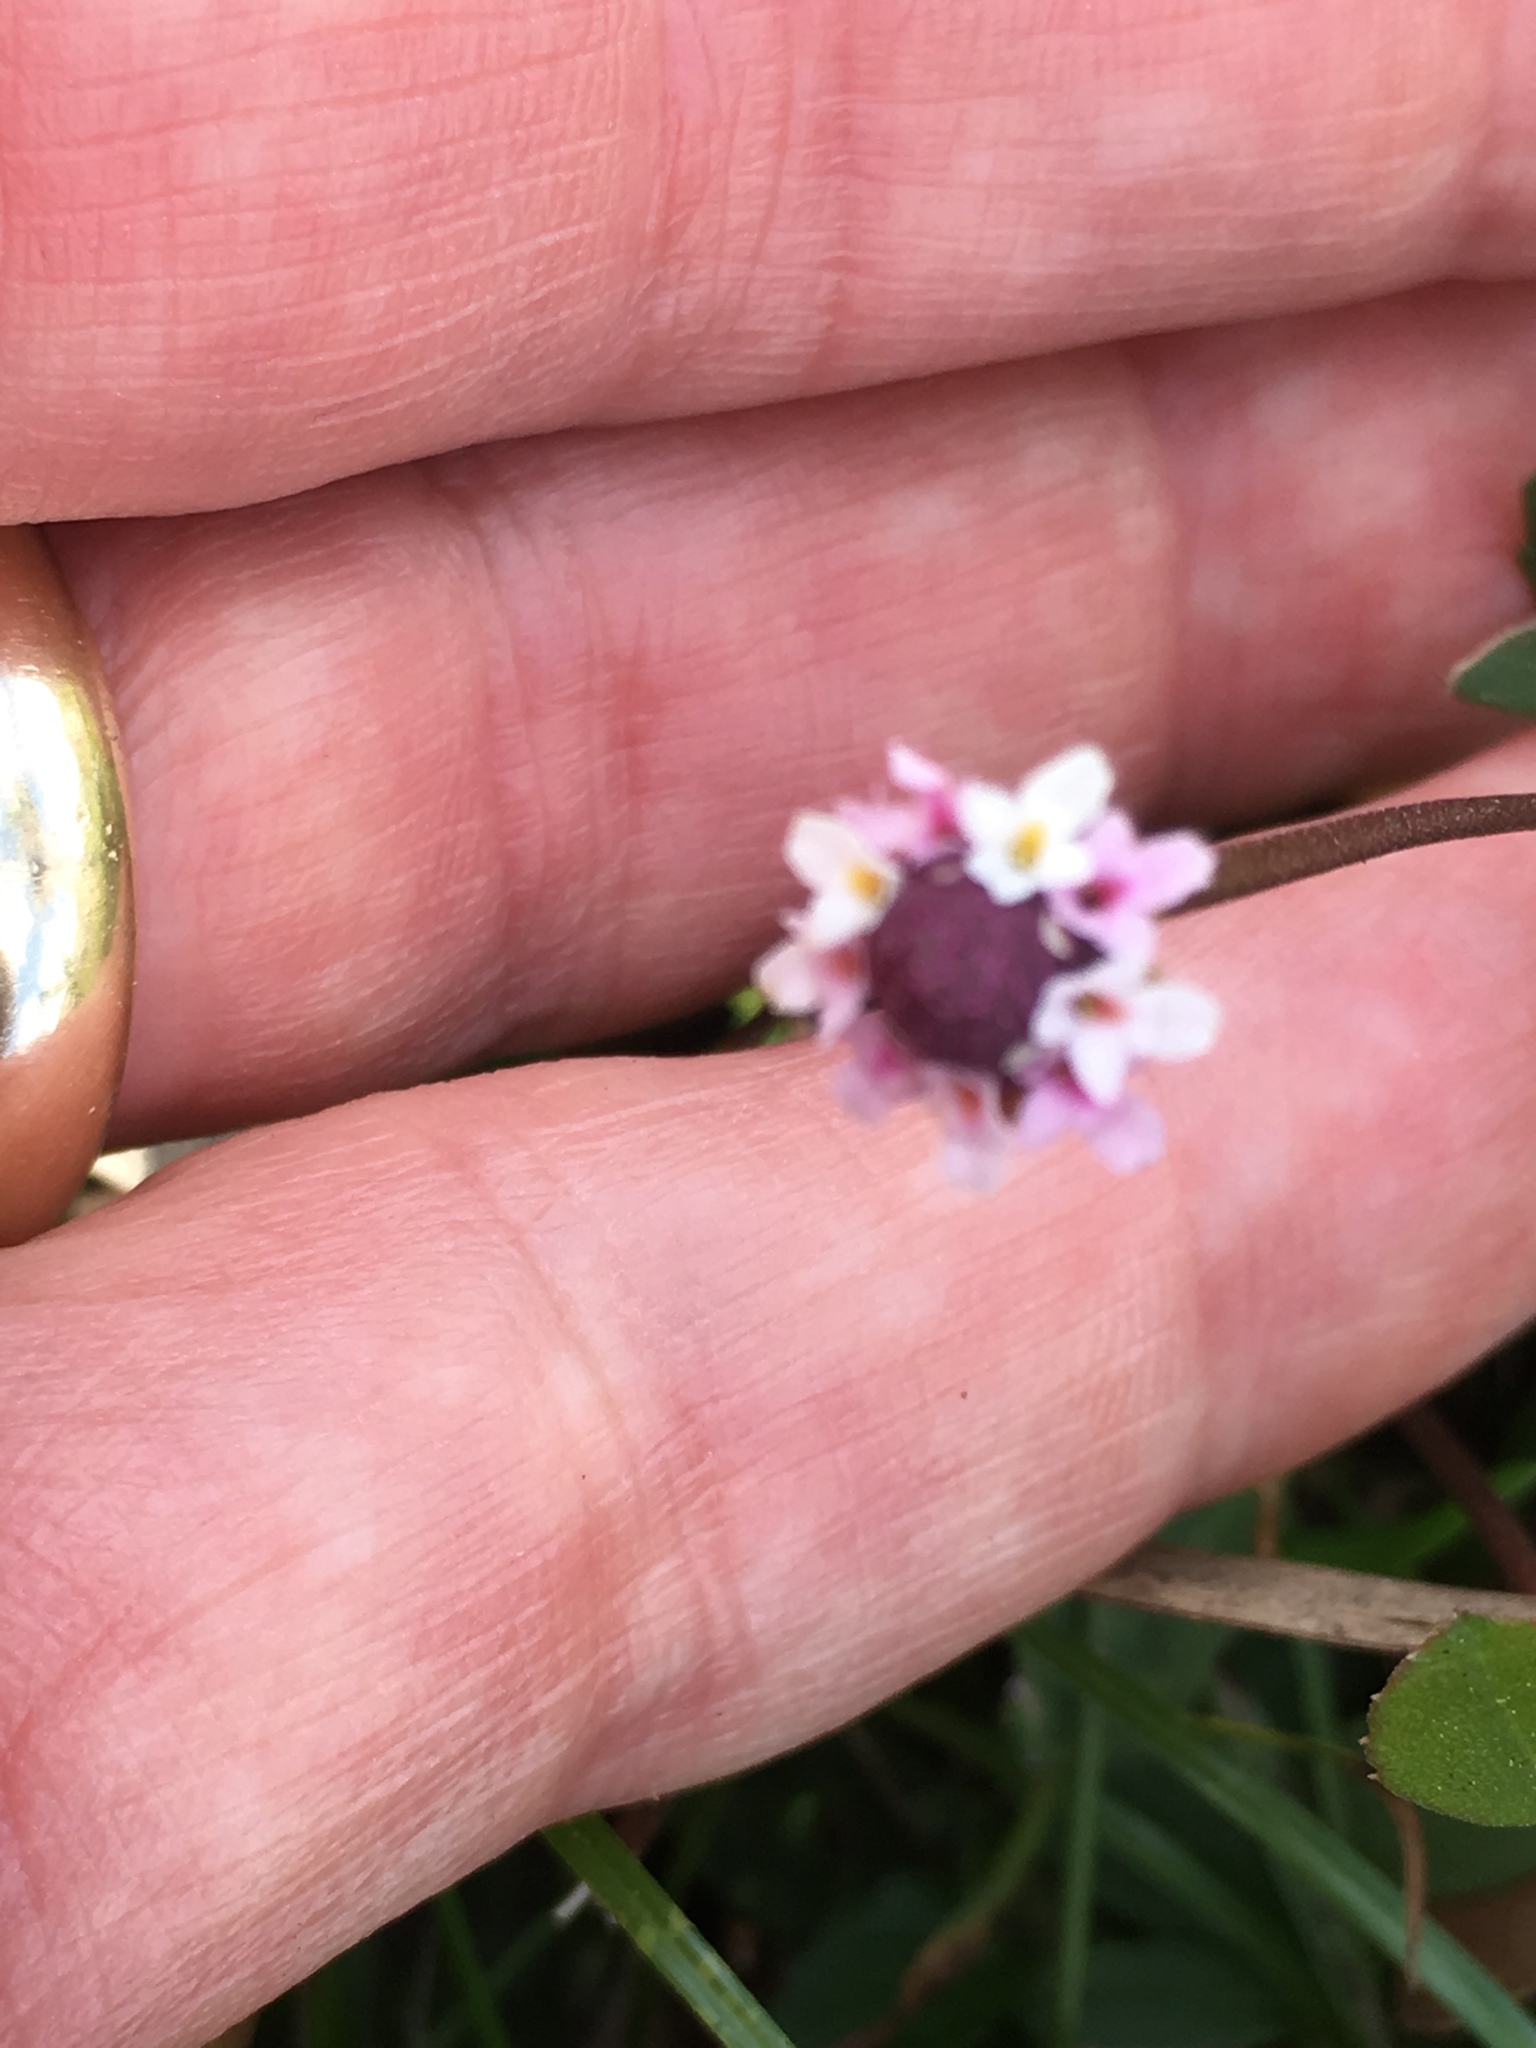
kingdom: Plantae
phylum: Tracheophyta
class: Magnoliopsida
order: Lamiales
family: Verbenaceae
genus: Phyla
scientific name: Phyla nodiflora
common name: Frogfruit
